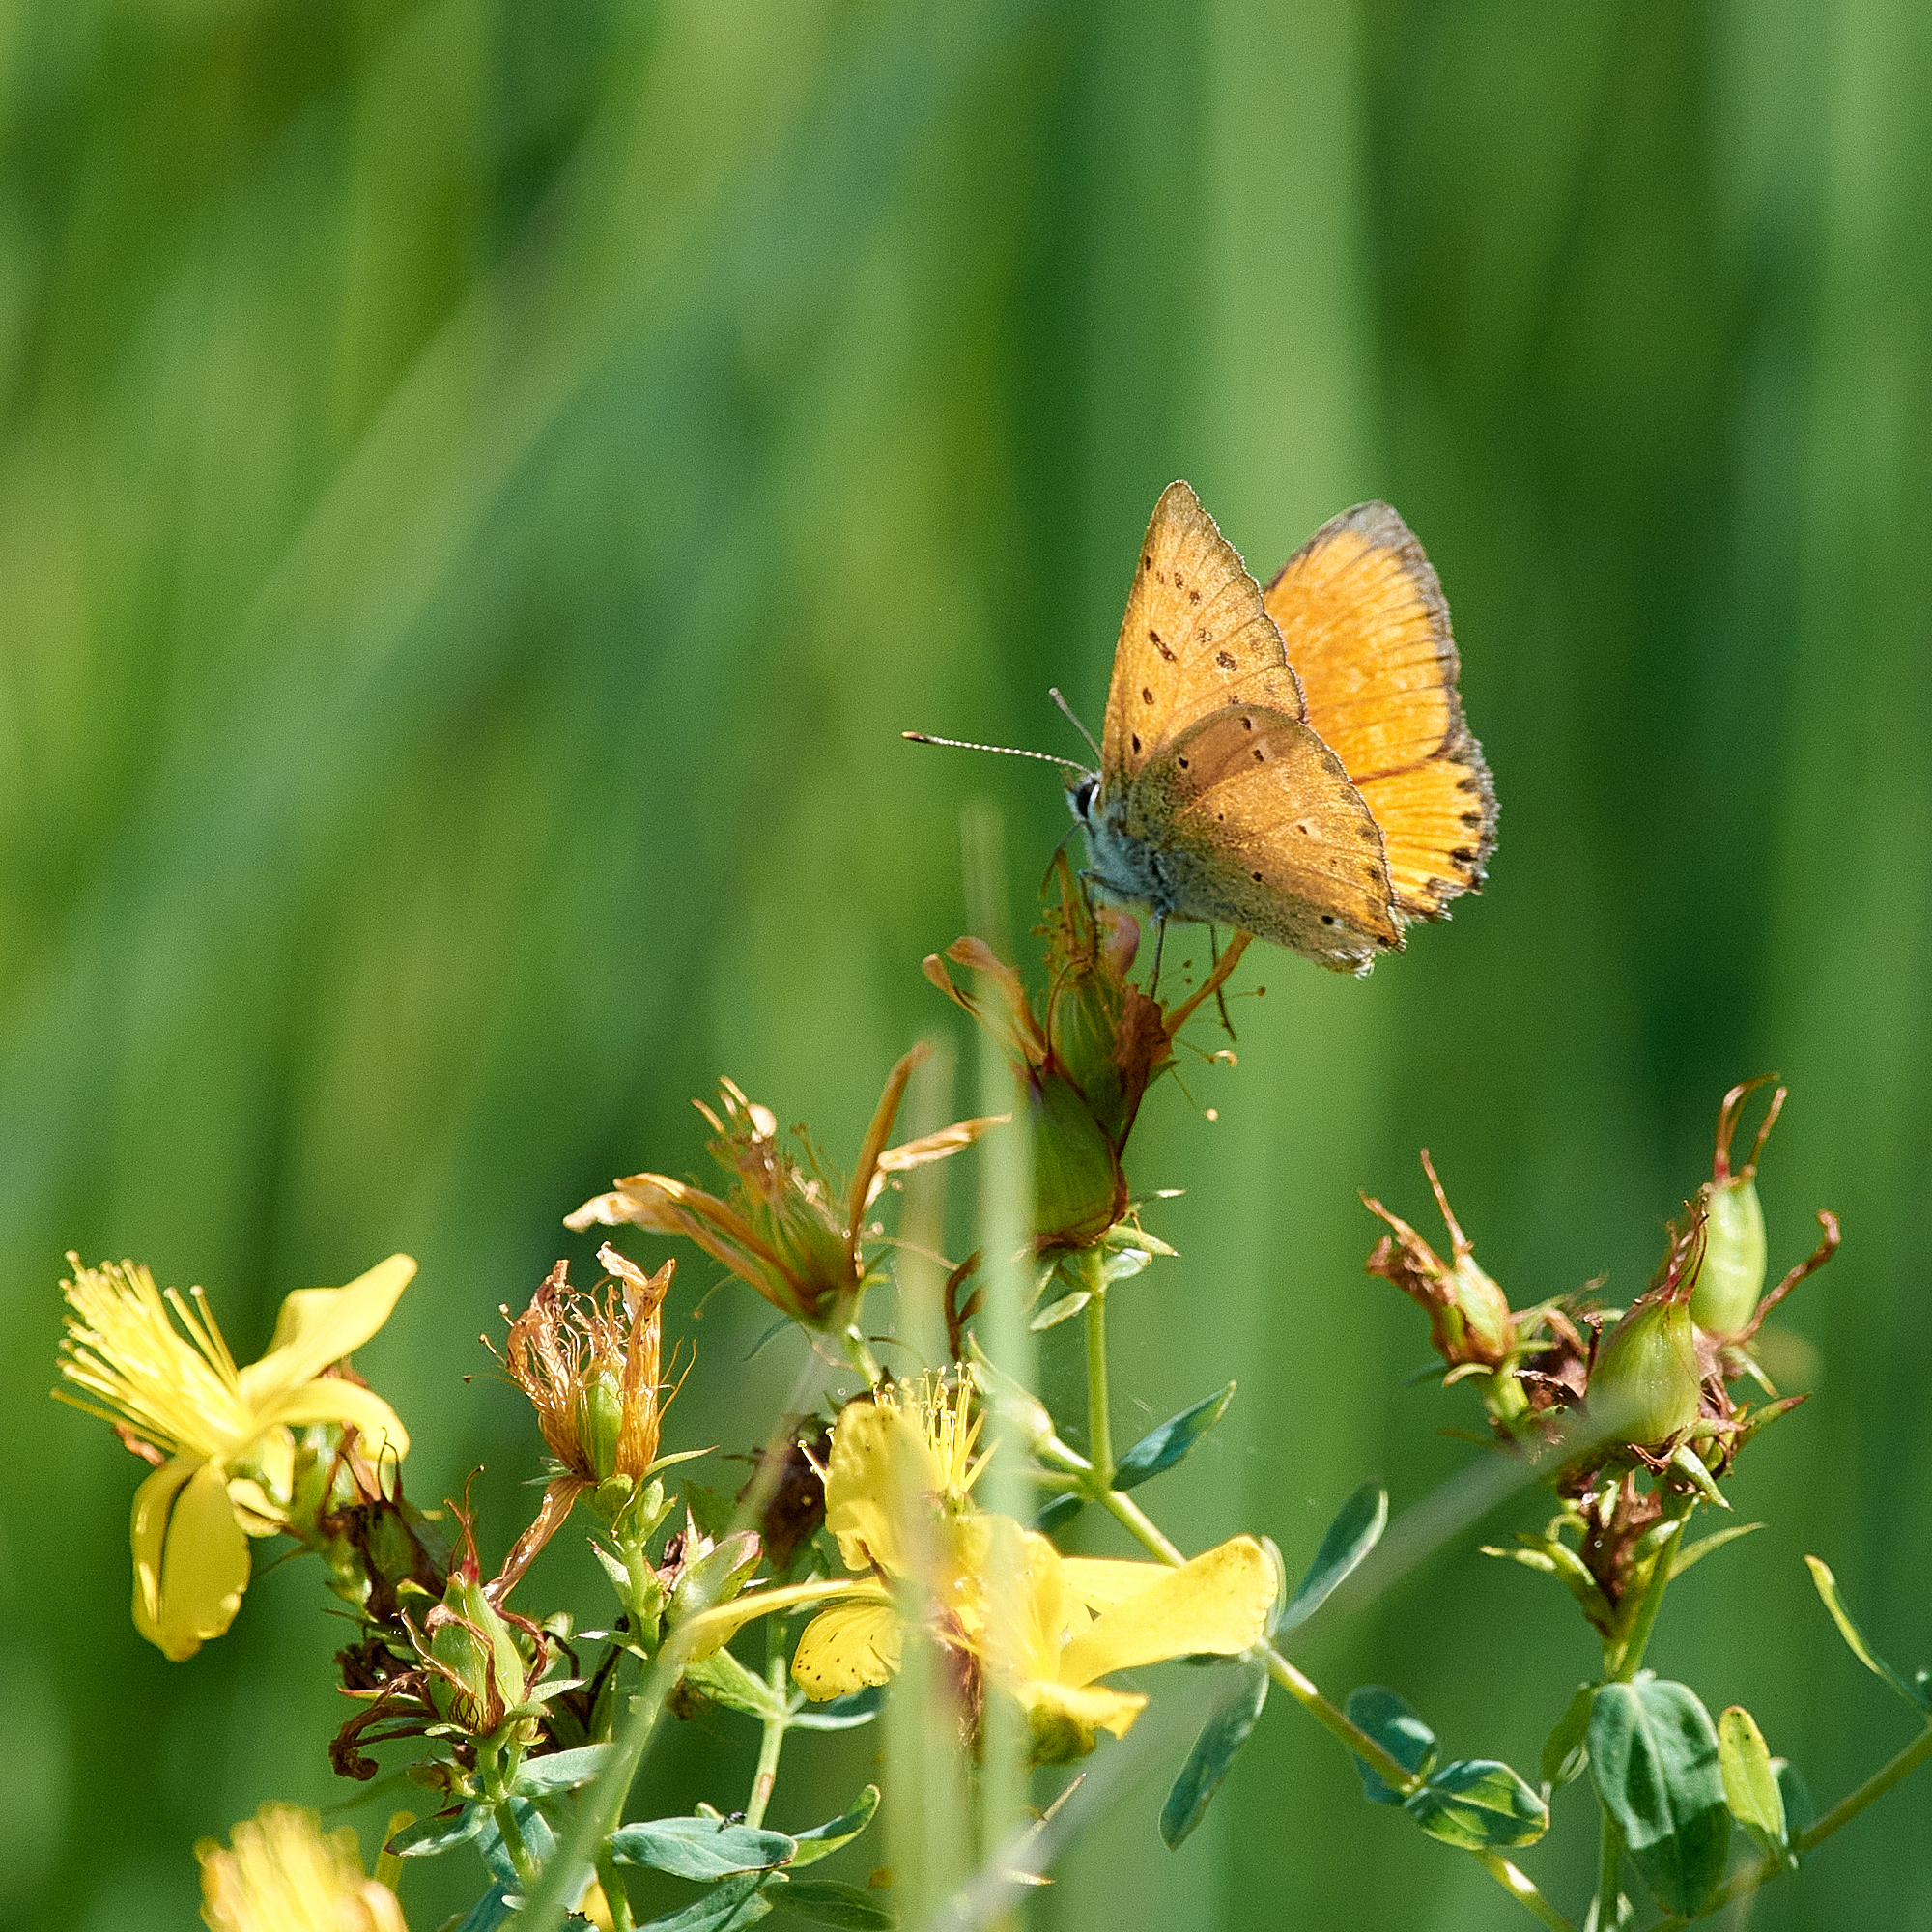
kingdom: Animalia
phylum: Arthropoda
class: Insecta
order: Lepidoptera
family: Lycaenidae
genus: Lycaena
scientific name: Lycaena virgaureae
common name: Scarce copper
